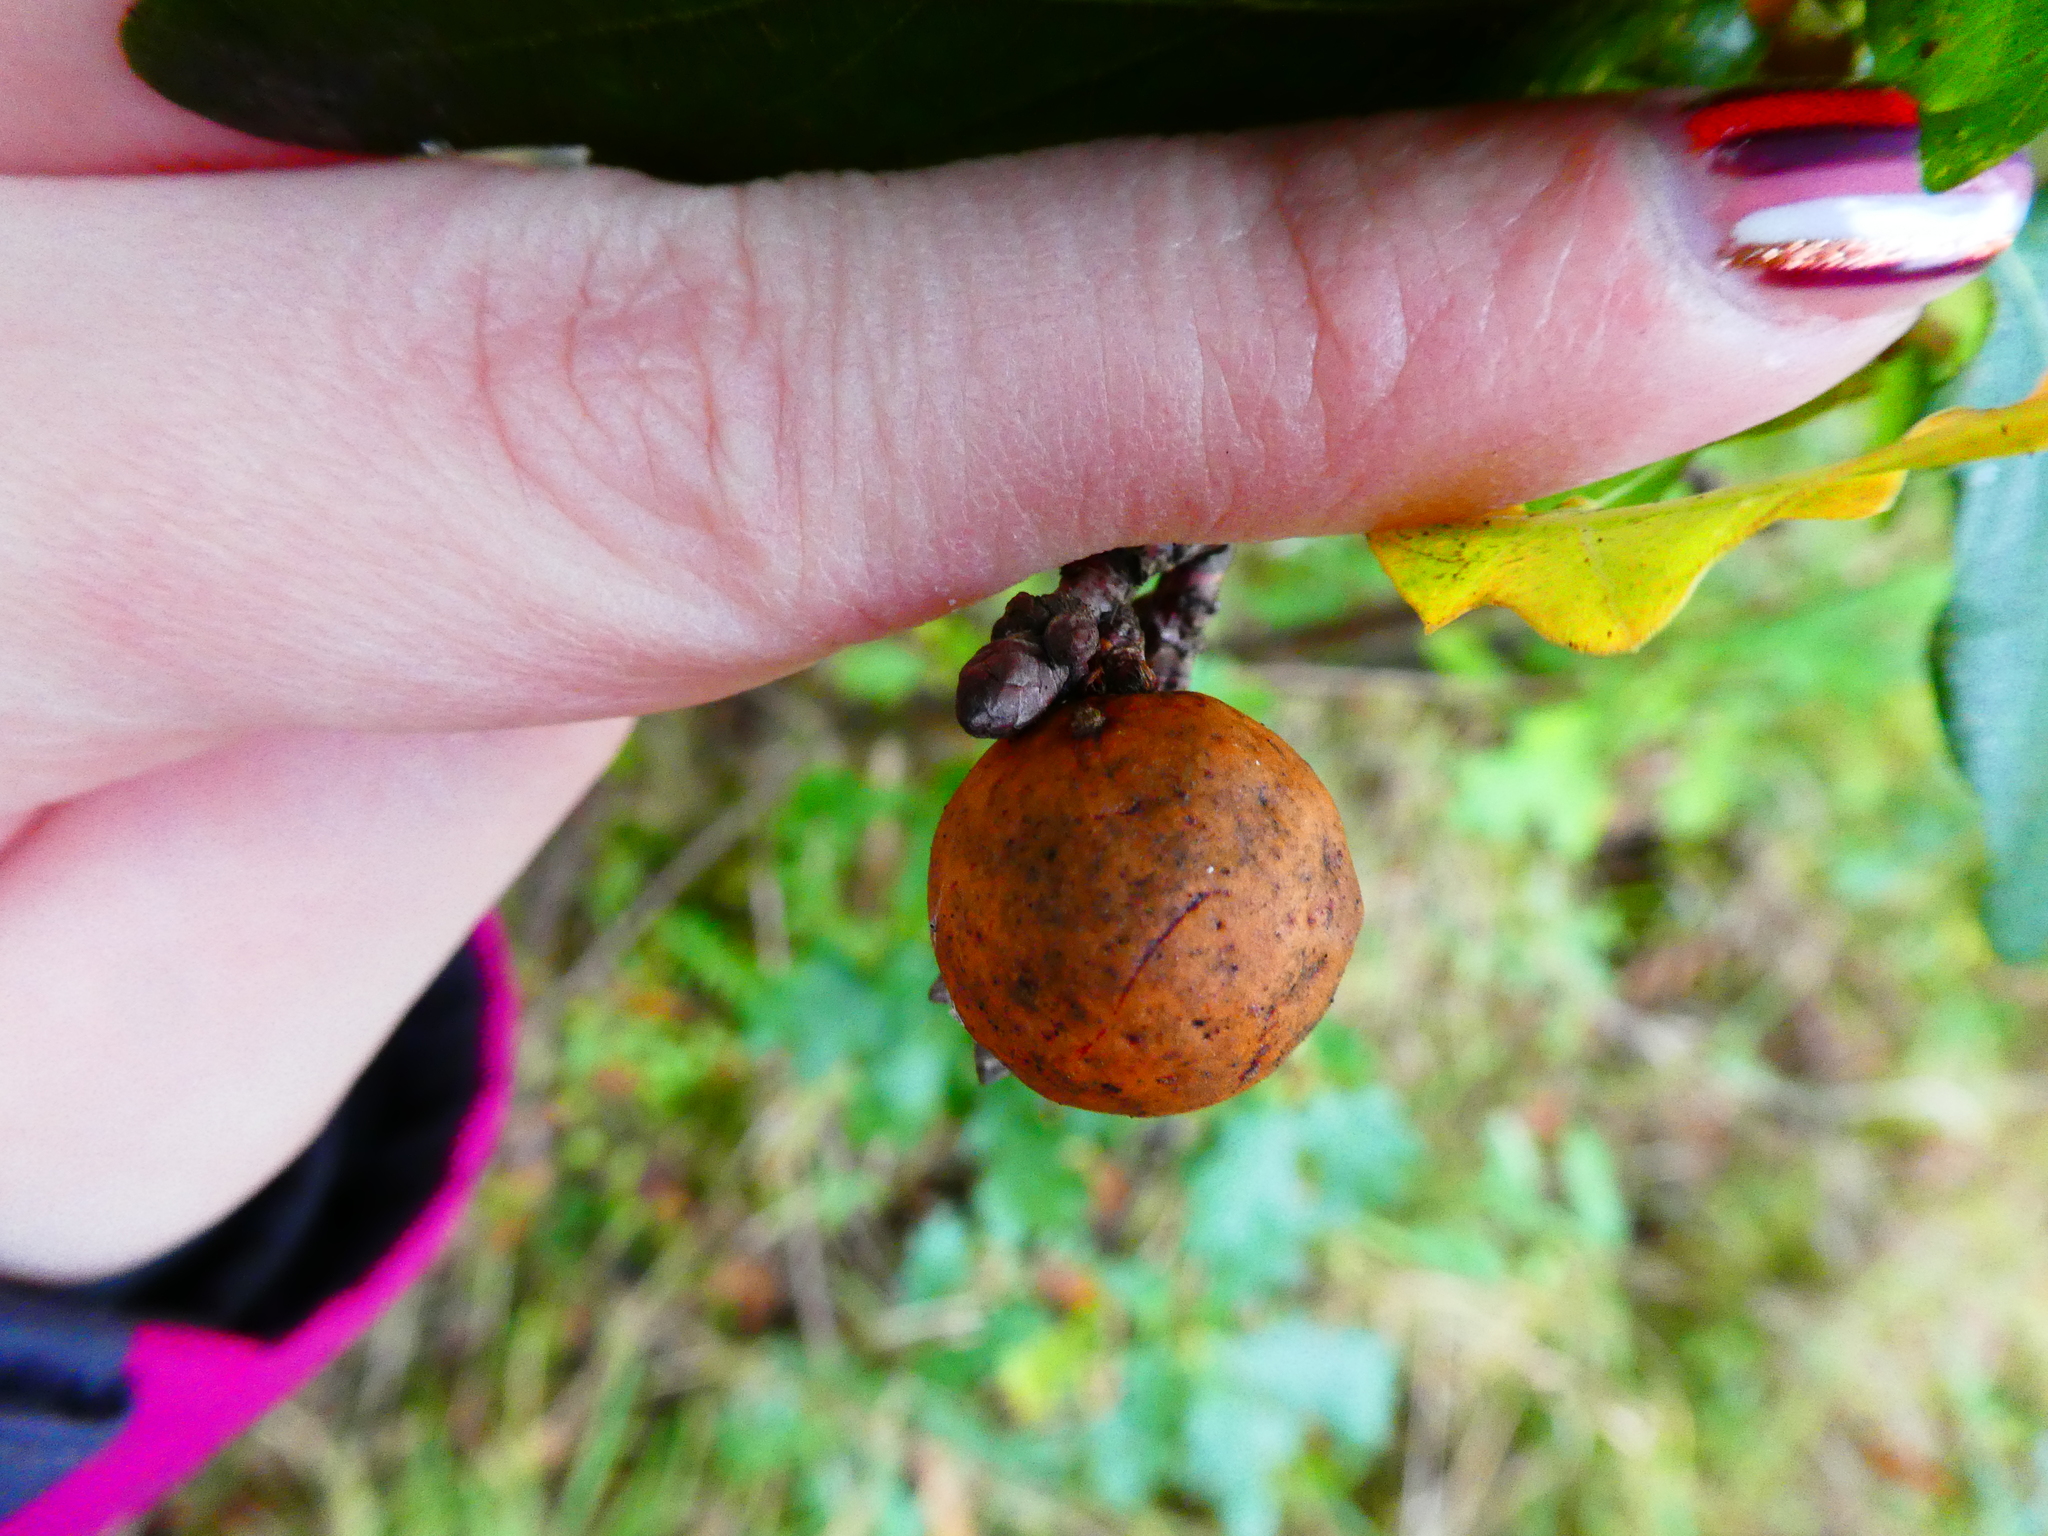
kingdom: Animalia
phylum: Arthropoda
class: Insecta
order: Hymenoptera
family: Cynipidae
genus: Andricus
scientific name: Andricus kollari
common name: Marble gall
